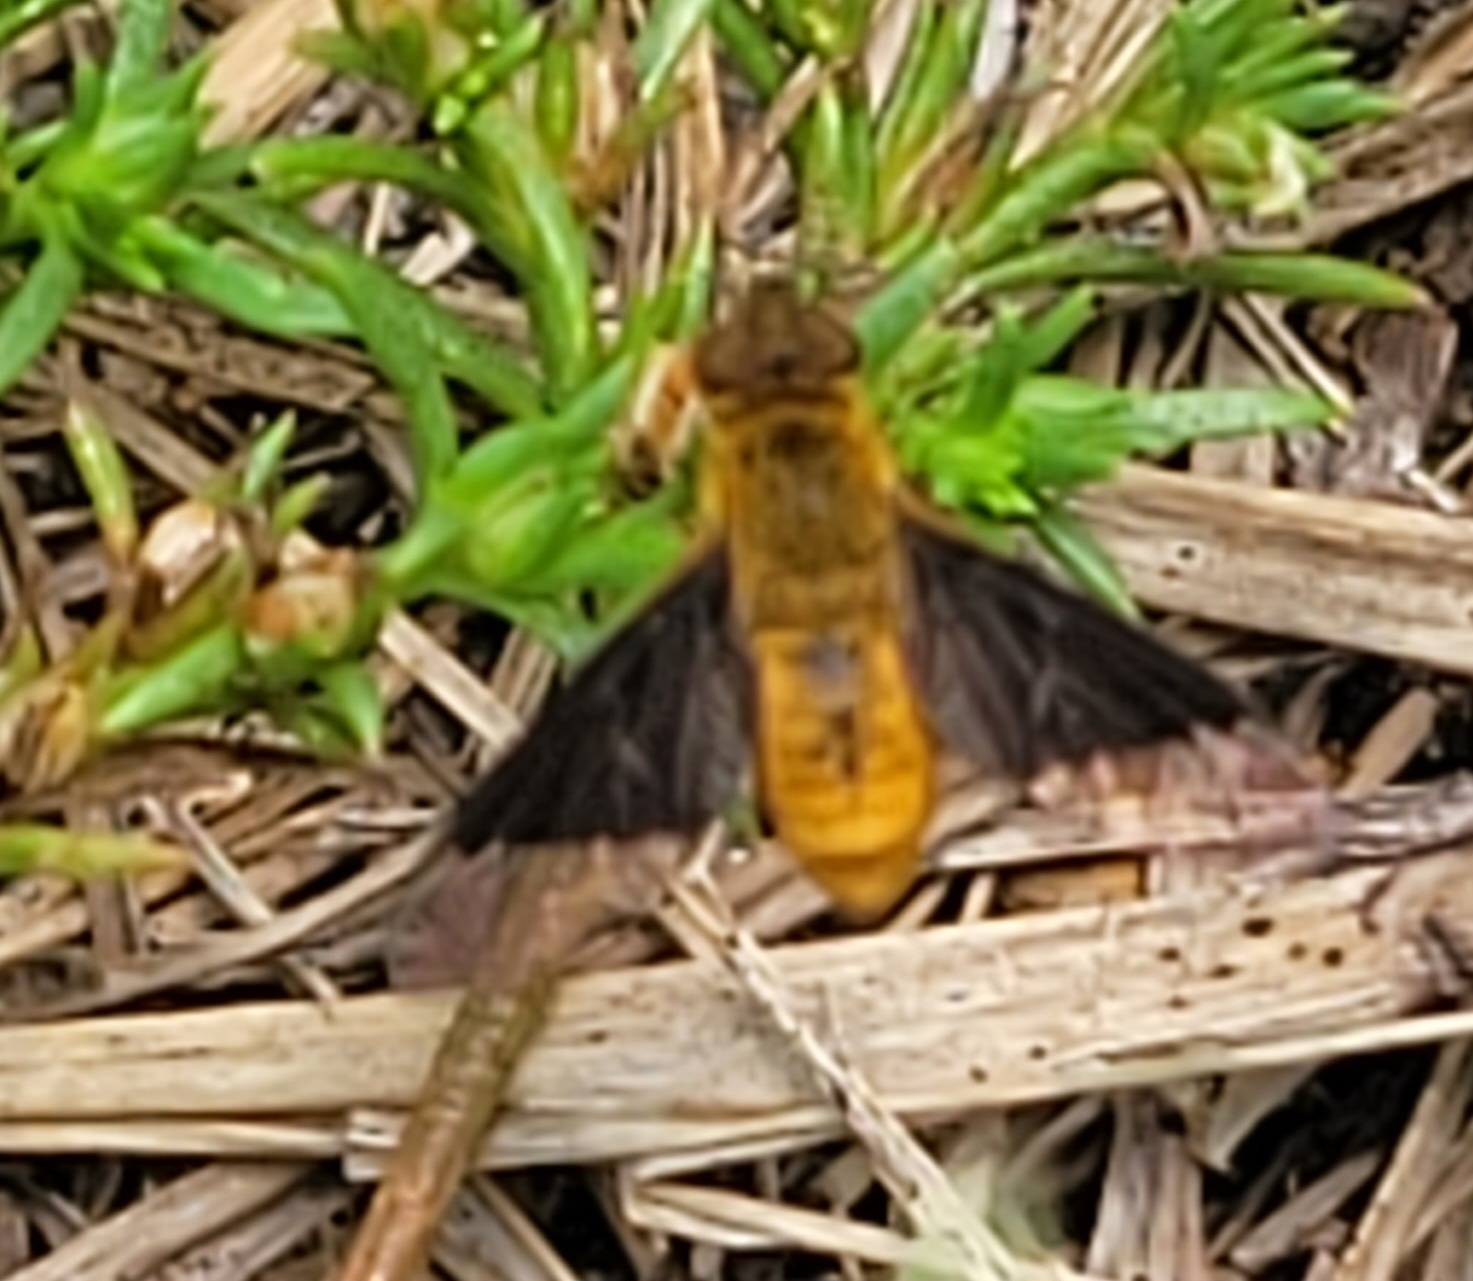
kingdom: Animalia
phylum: Arthropoda
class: Insecta
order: Diptera
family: Bombyliidae
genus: Chrysanthrax
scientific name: Chrysanthrax cypris
